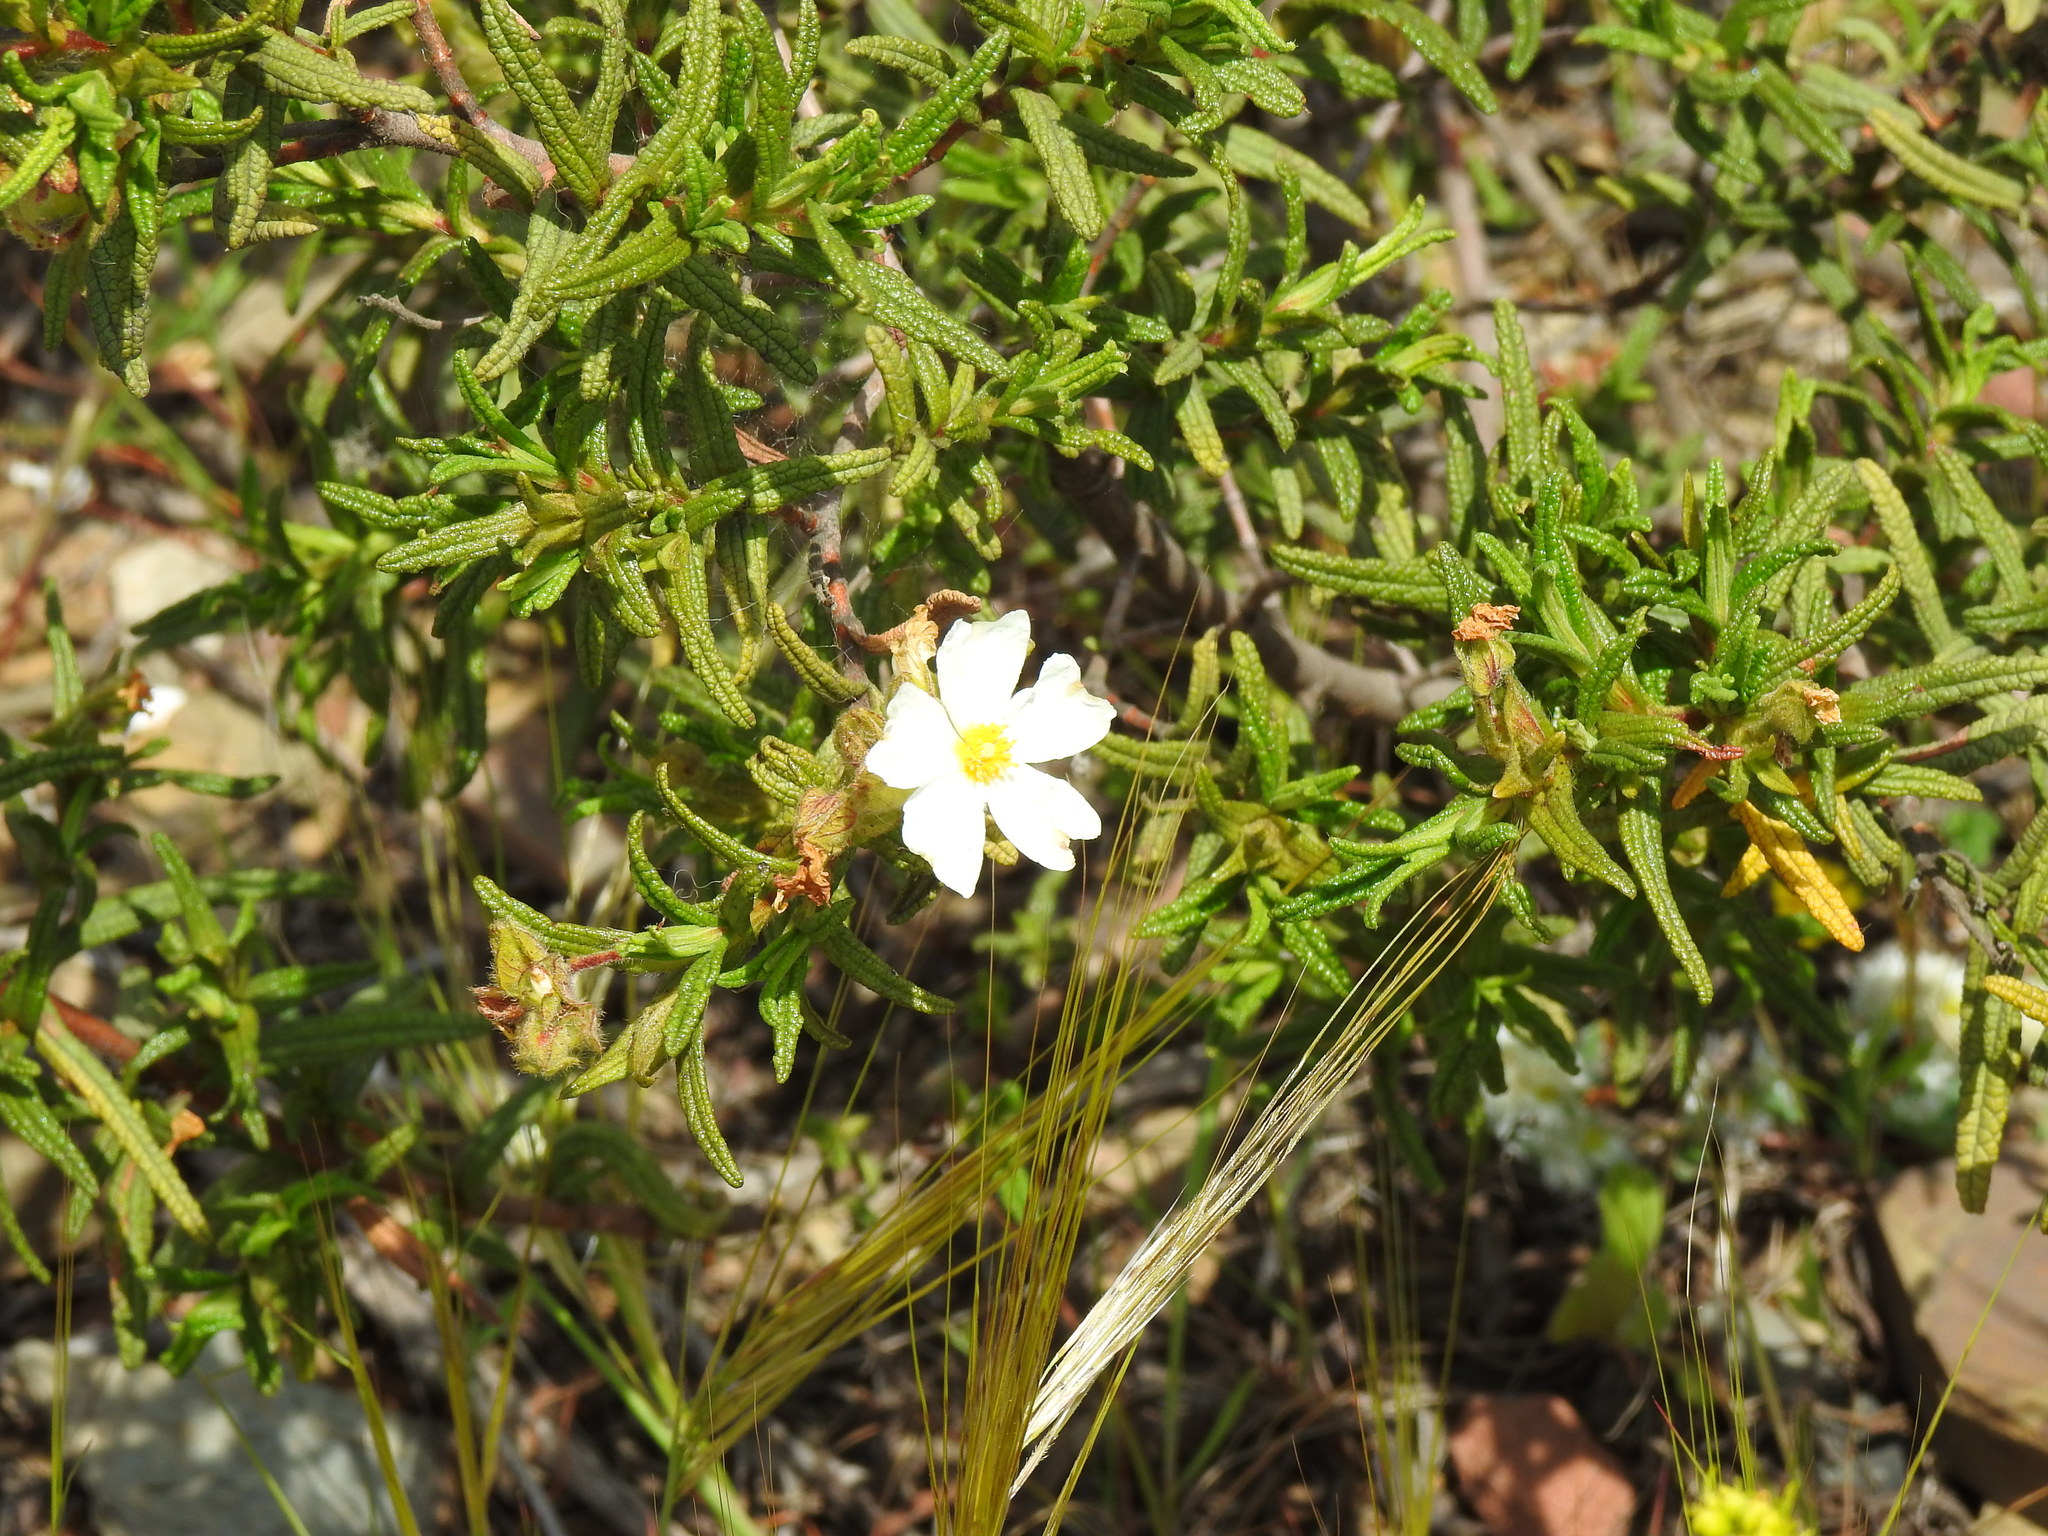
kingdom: Plantae
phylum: Tracheophyta
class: Magnoliopsida
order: Malvales
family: Cistaceae
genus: Cistus
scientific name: Cistus monspeliensis
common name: Montpelier cistus
